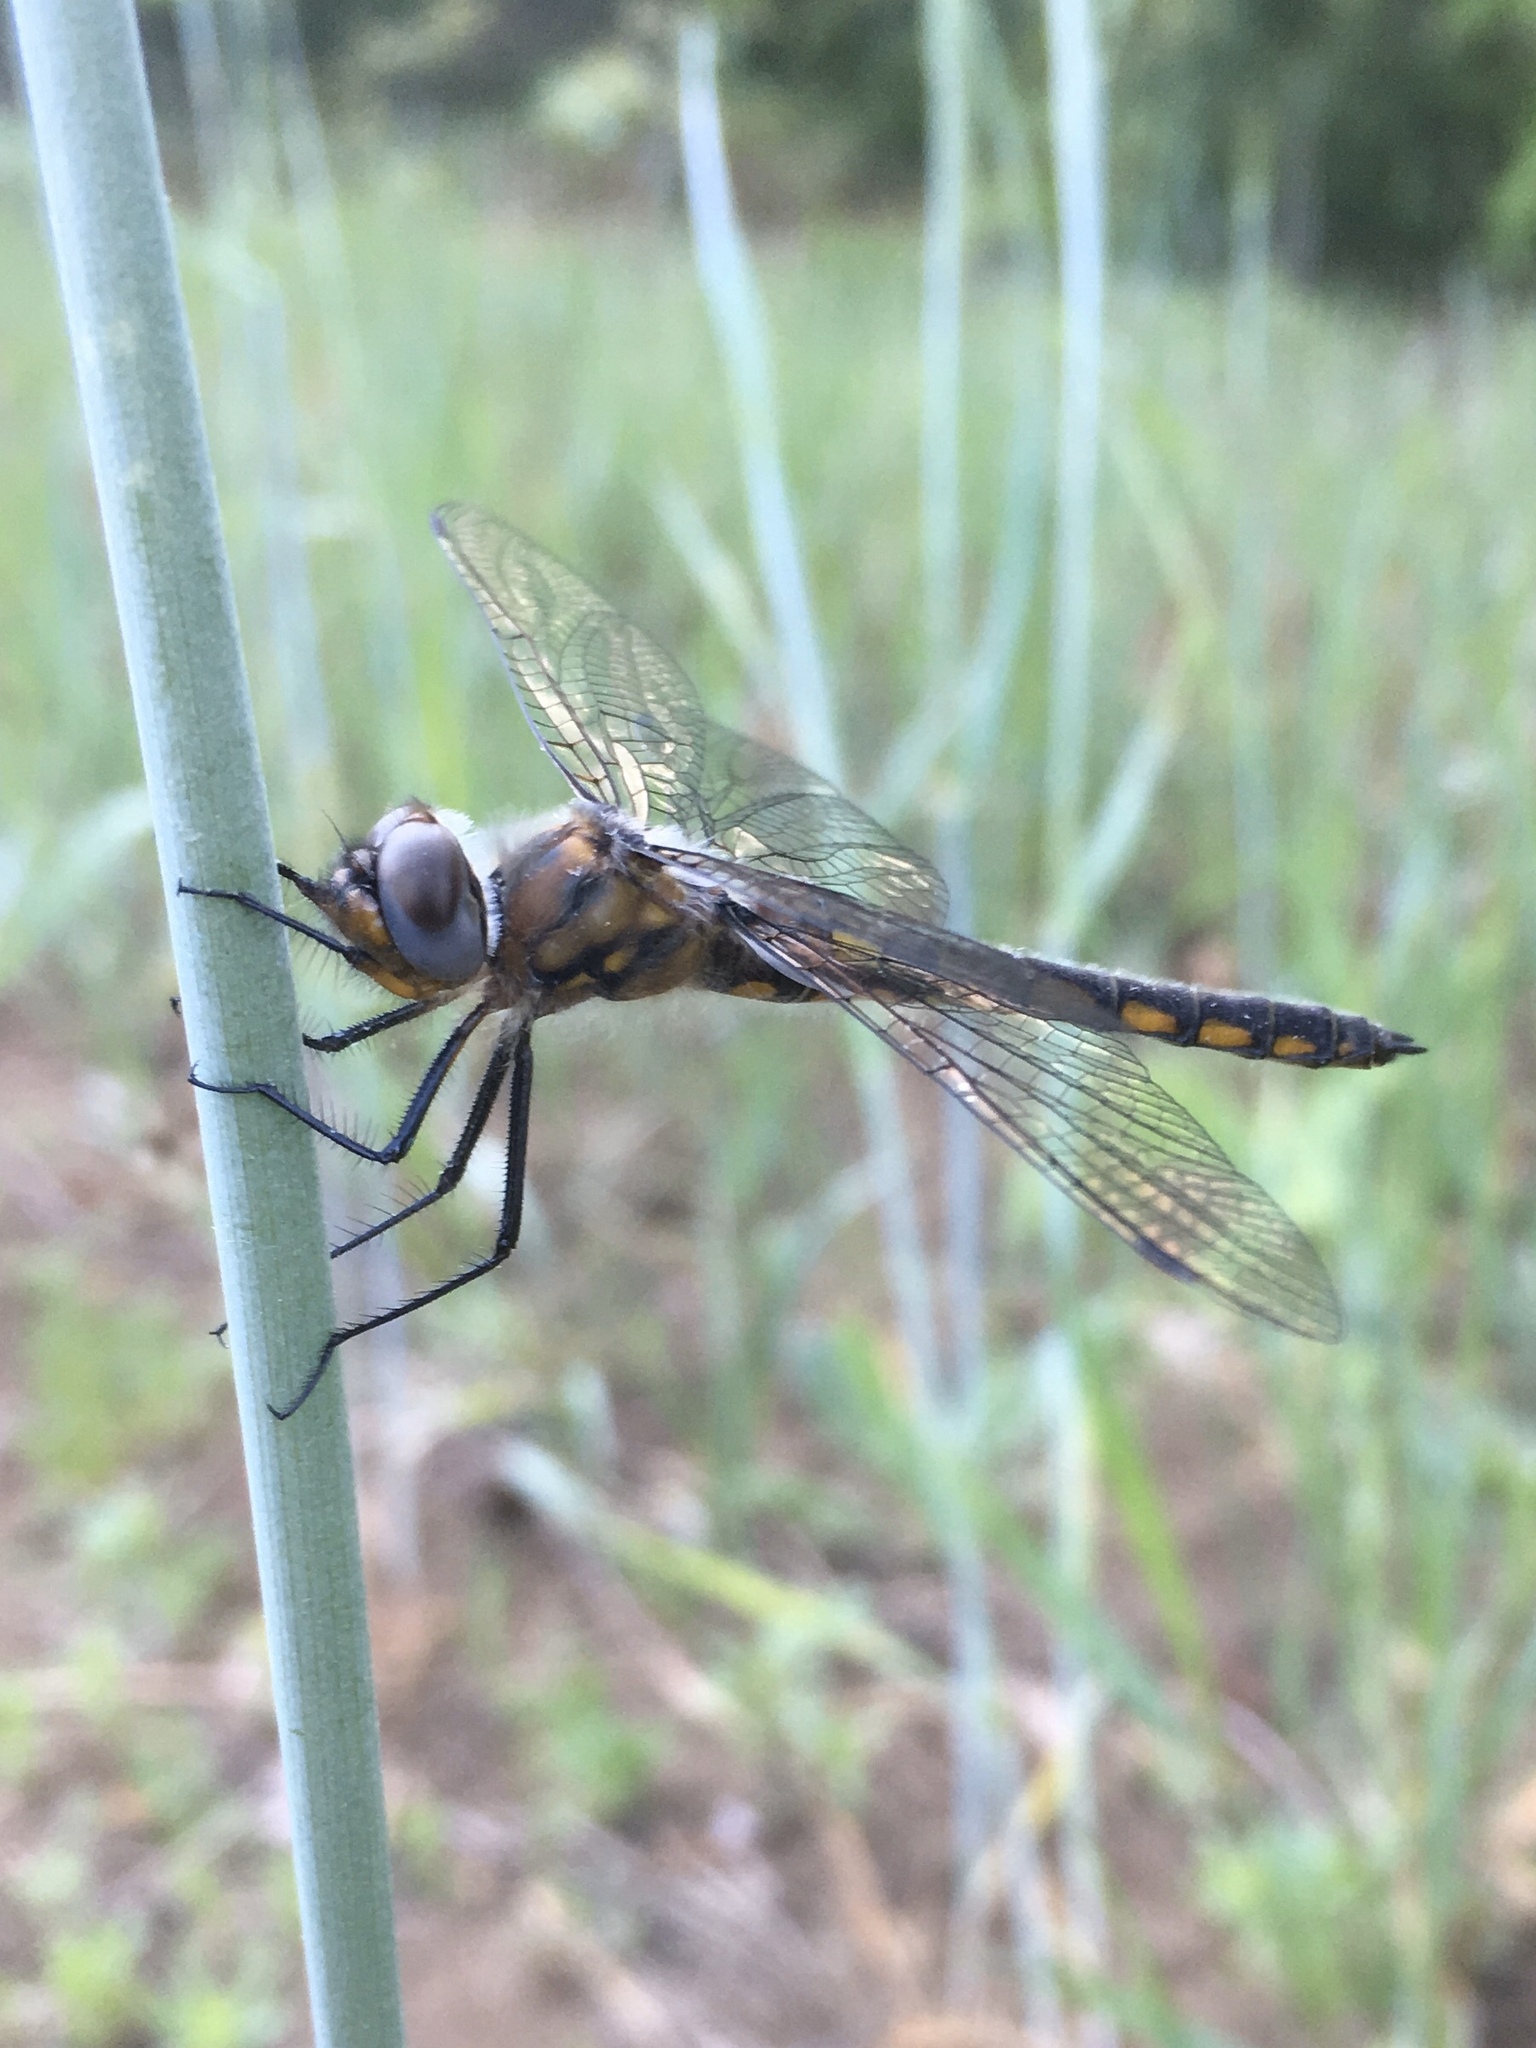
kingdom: Animalia
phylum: Arthropoda
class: Insecta
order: Odonata
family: Corduliidae
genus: Epitheca
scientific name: Epitheca cynosura
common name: Common baskettail
